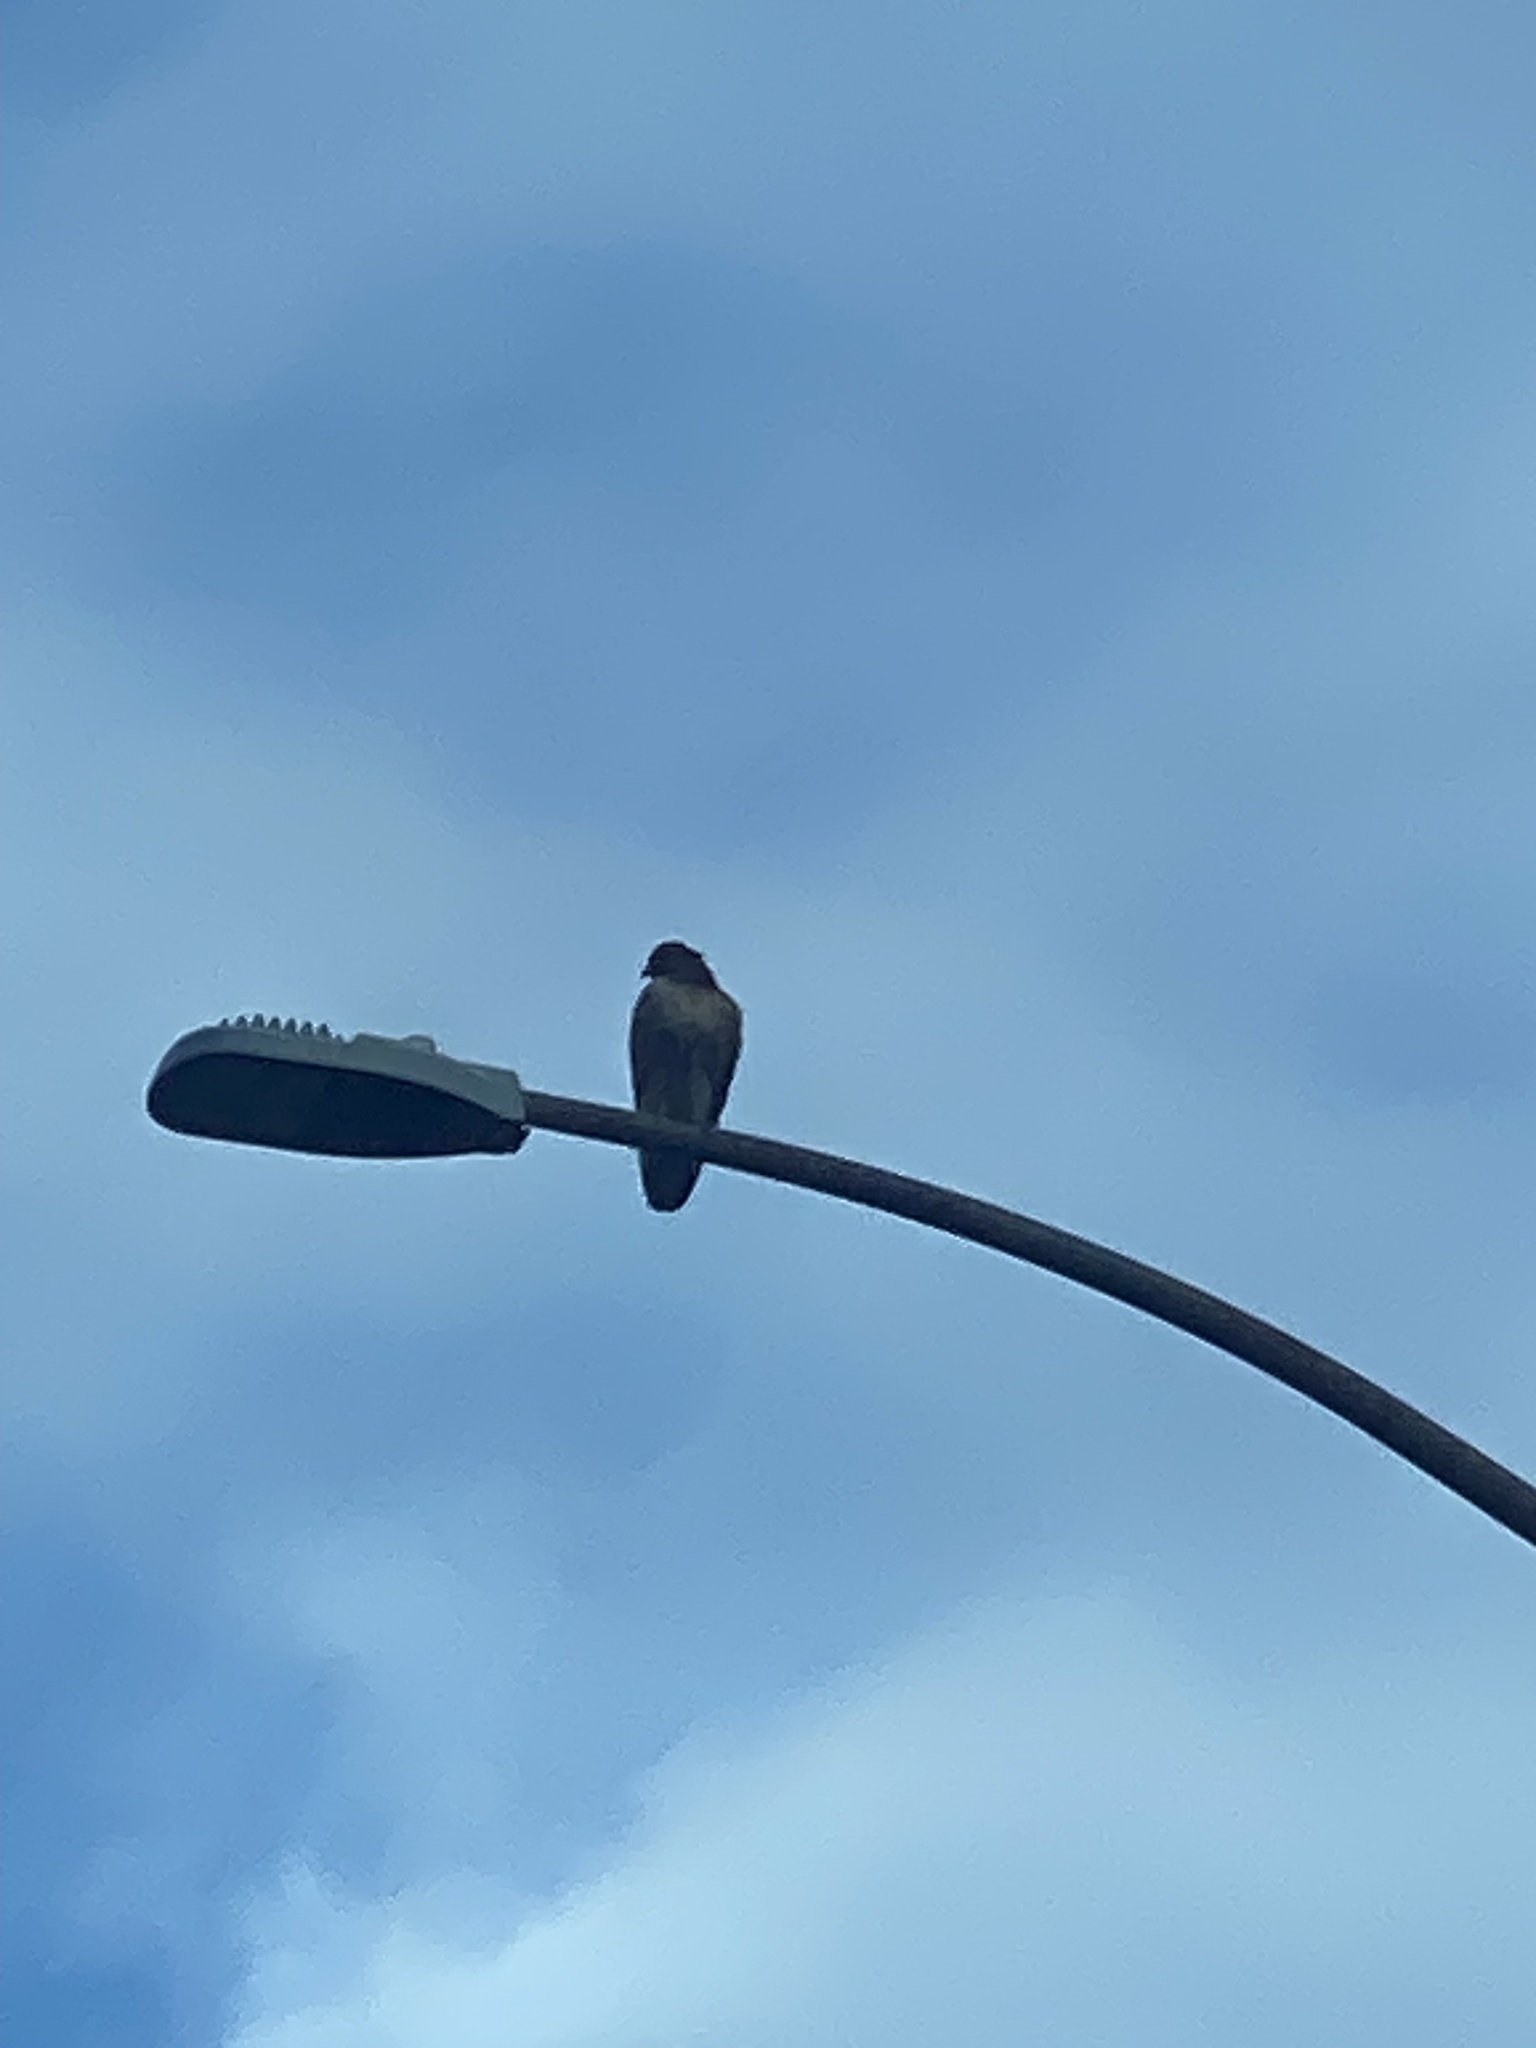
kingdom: Animalia
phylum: Chordata
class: Aves
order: Accipitriformes
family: Accipitridae
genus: Buteo
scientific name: Buteo jamaicensis
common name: Red-tailed hawk
